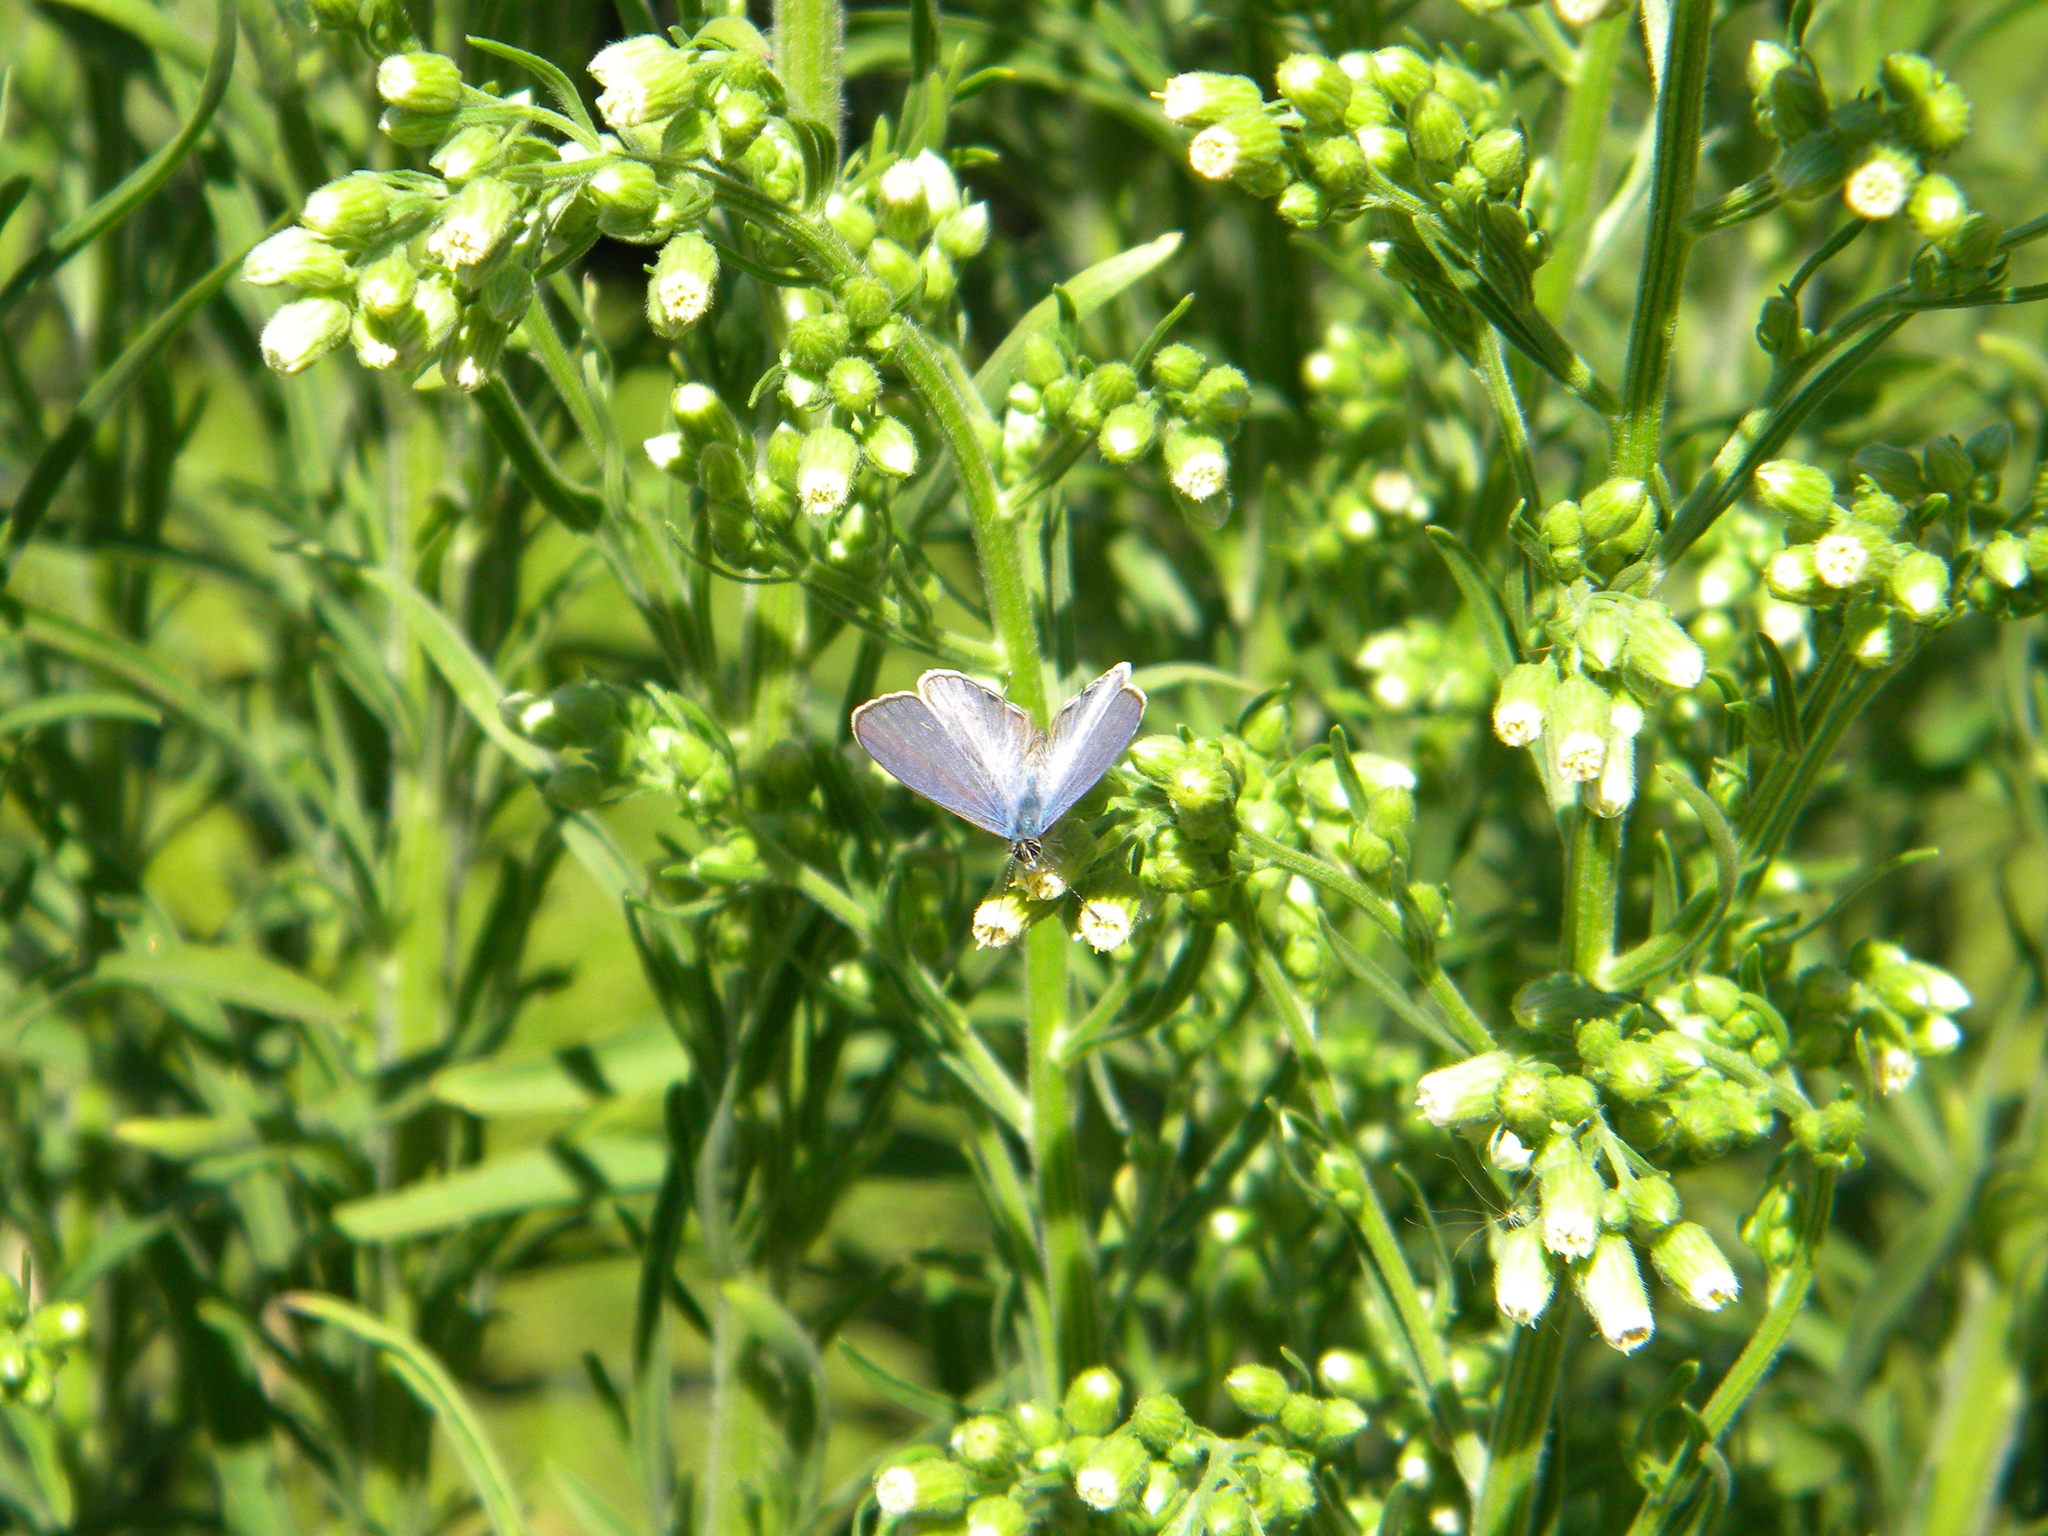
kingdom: Animalia
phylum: Arthropoda
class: Insecta
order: Lepidoptera
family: Lycaenidae
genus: Leptotes
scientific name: Leptotes
